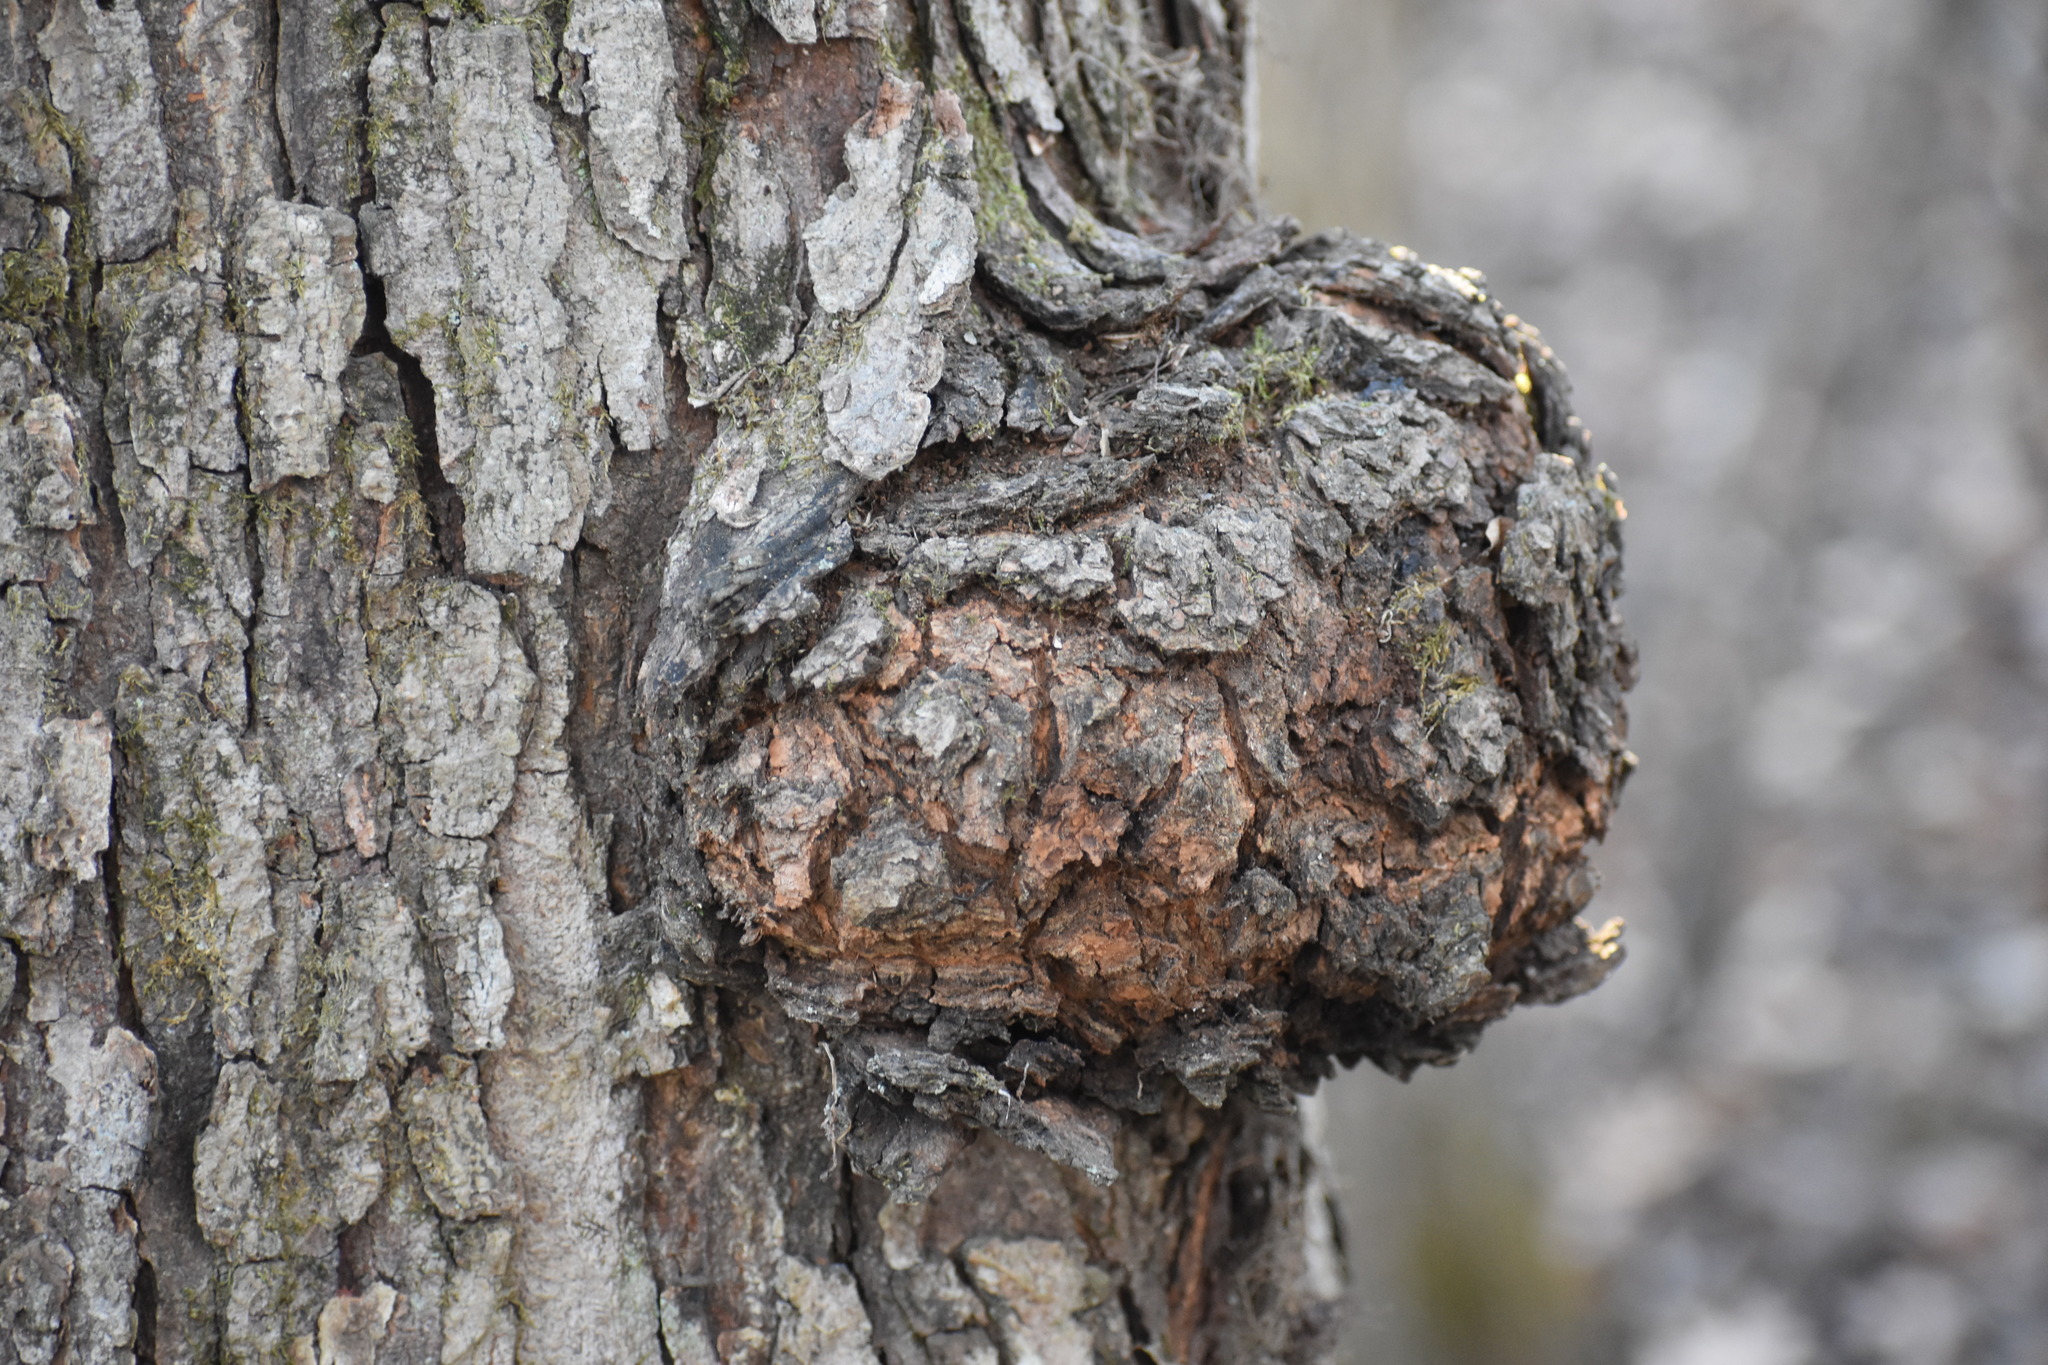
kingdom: Bacteria
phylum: Proteobacteria
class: Alphaproteobacteria
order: Rhizobiales
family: Rhizobiaceae
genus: Rhizobium
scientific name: Rhizobium Agrobacterium radiobacter
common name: Bacterial crown gall
